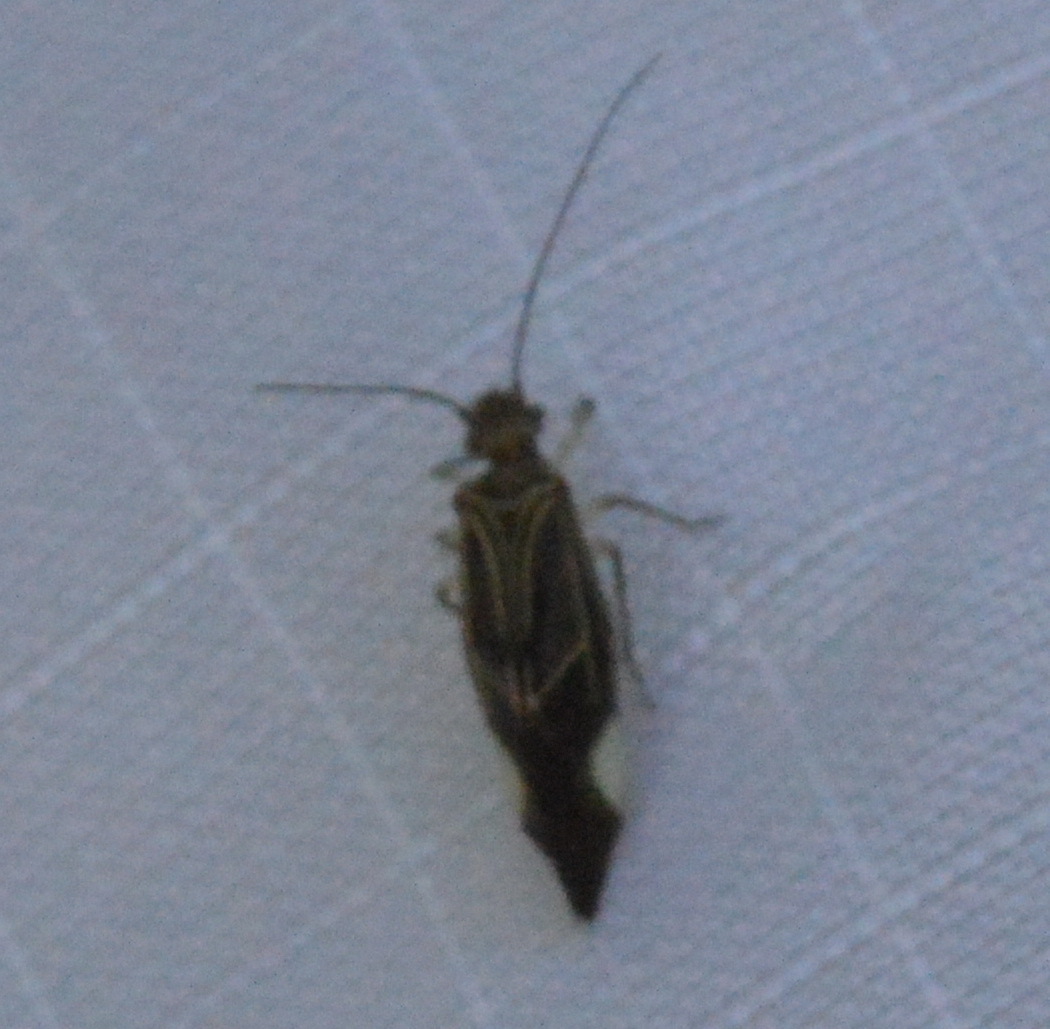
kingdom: Animalia
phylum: Arthropoda
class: Insecta
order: Psocodea
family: Psocidae
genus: Cerastipsocus
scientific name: Cerastipsocus venosus
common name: Tree cattle
